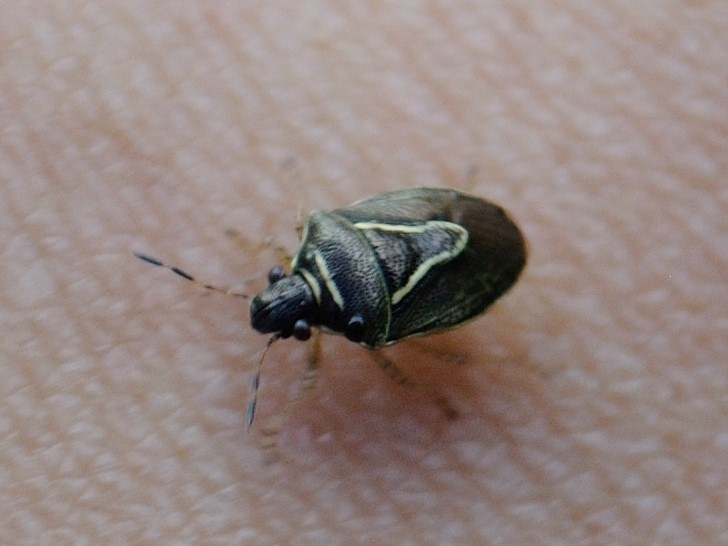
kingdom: Animalia
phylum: Arthropoda
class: Insecta
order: Hemiptera
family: Pentatomidae
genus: Mormidea
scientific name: Mormidea lugens
